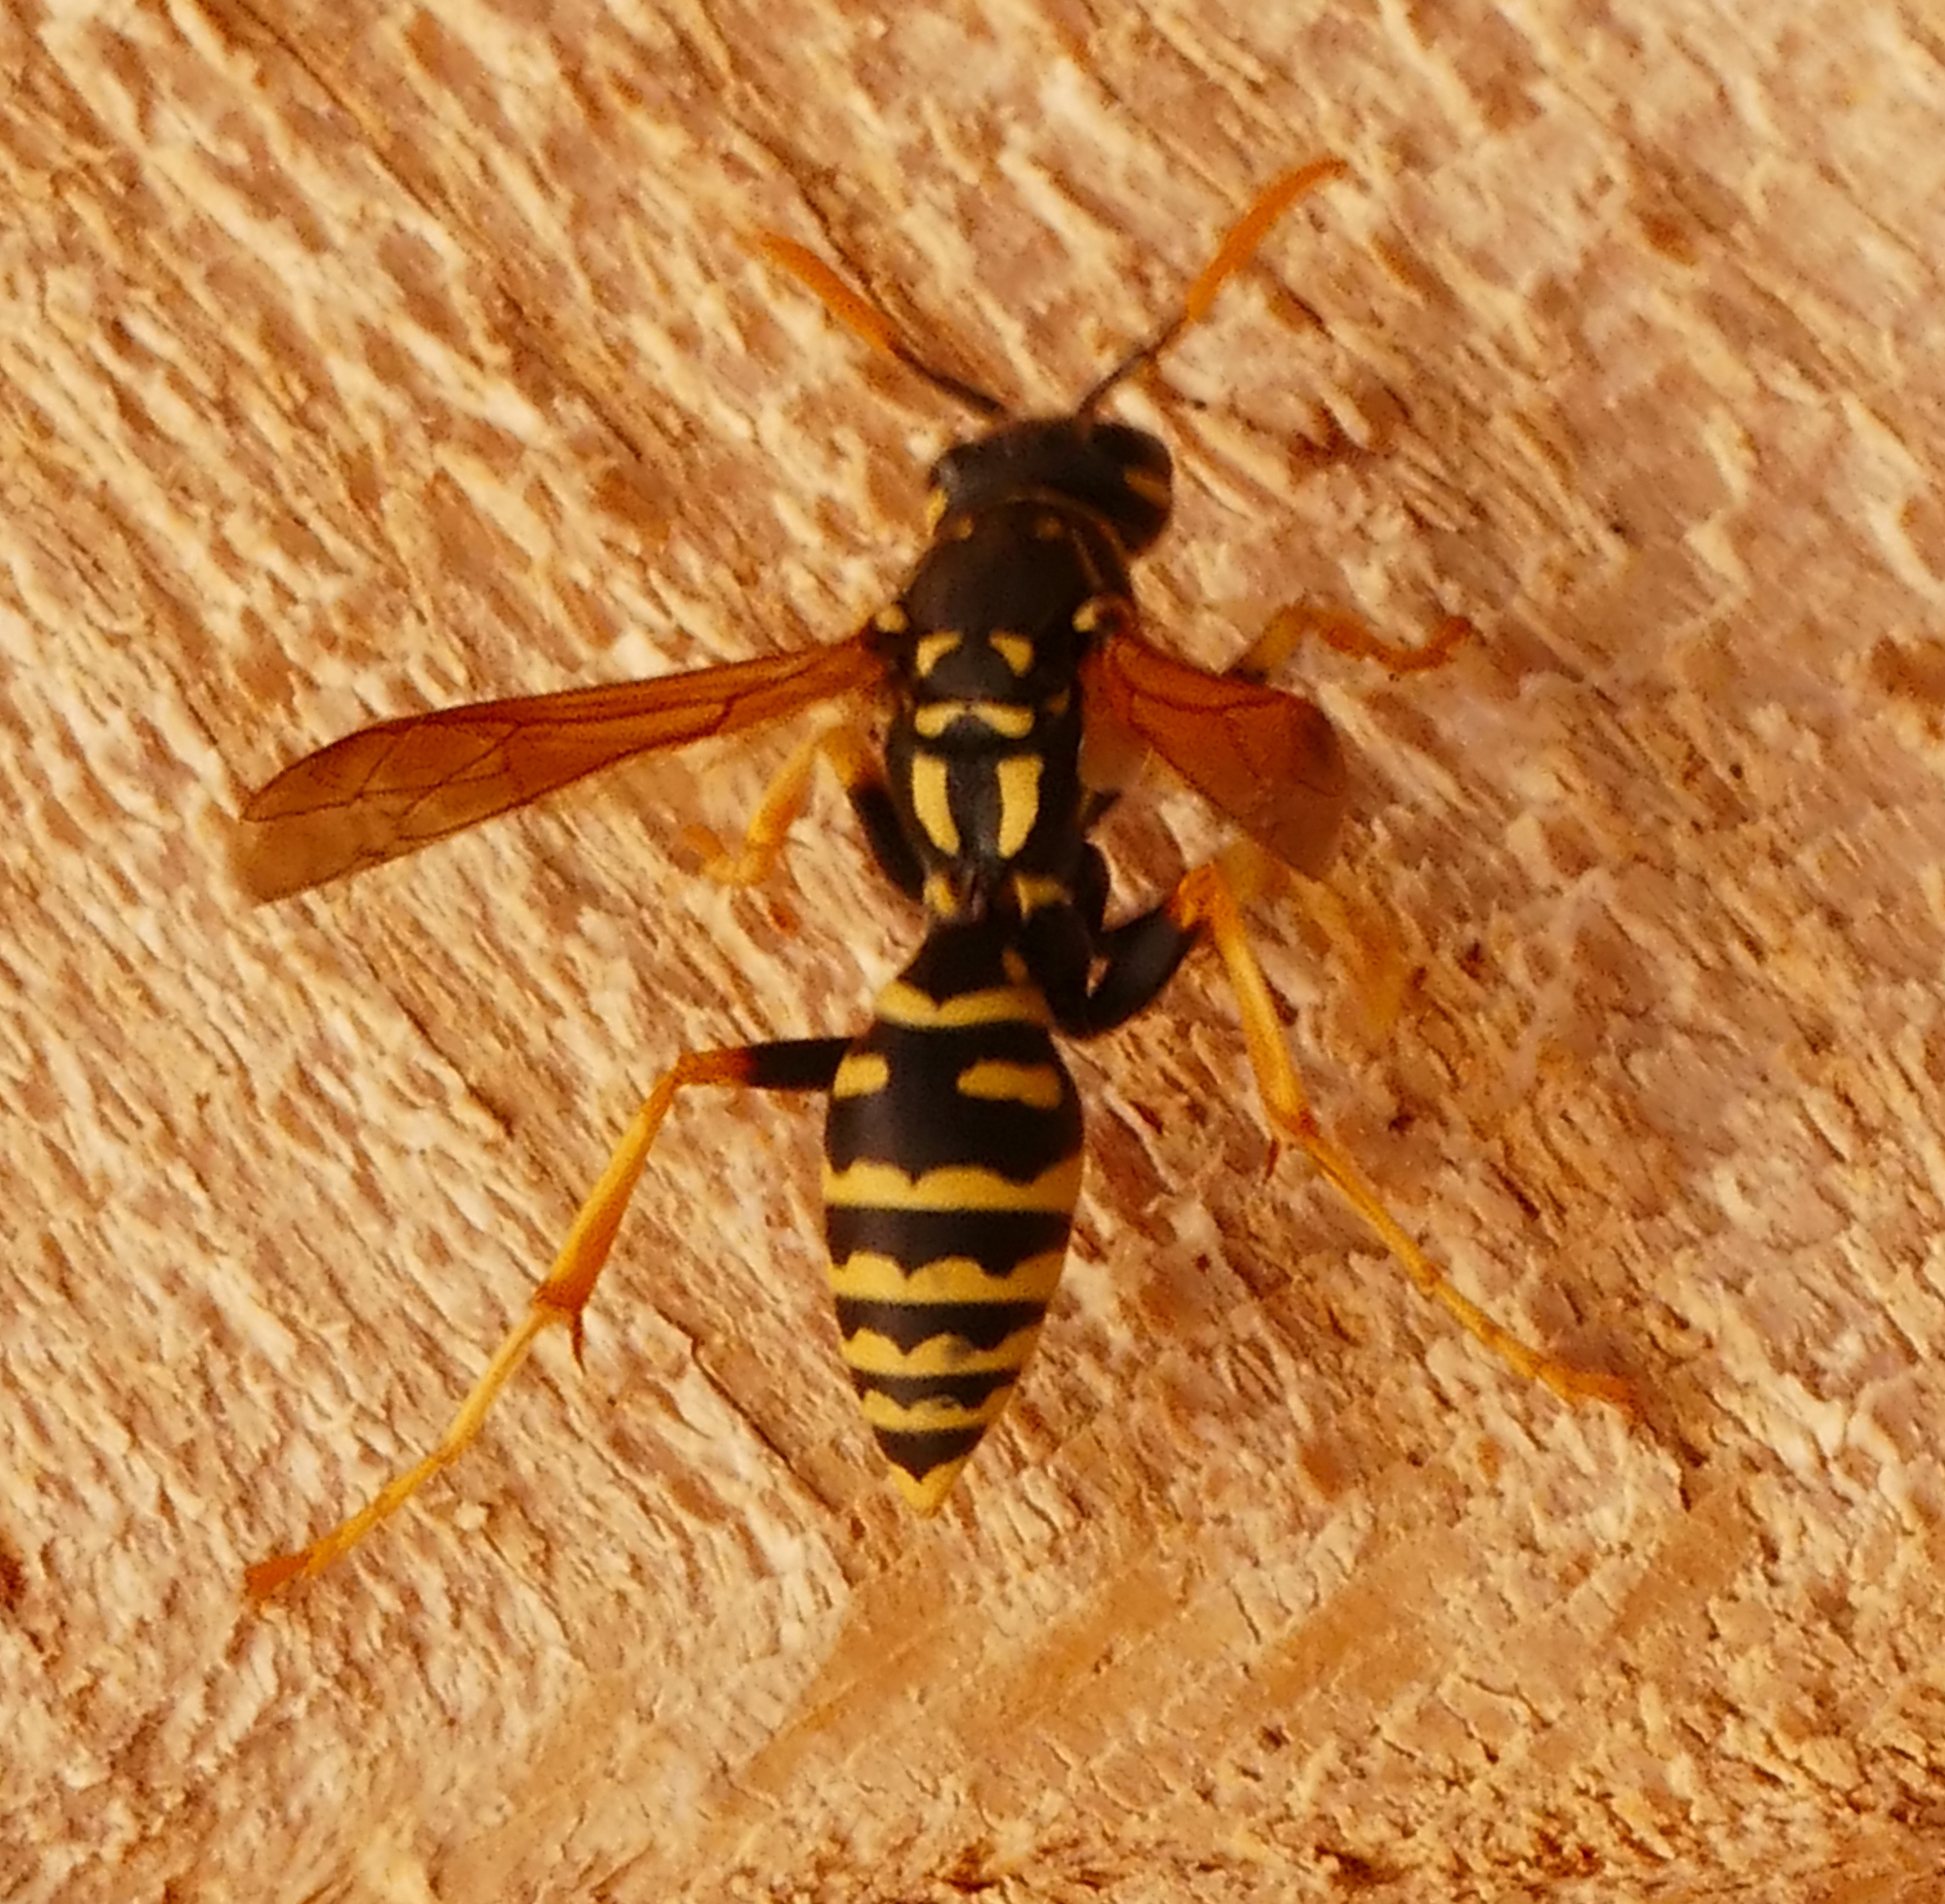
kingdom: Animalia
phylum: Arthropoda
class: Insecta
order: Hymenoptera
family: Eumenidae
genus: Polistes
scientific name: Polistes dominula
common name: Paper wasp
